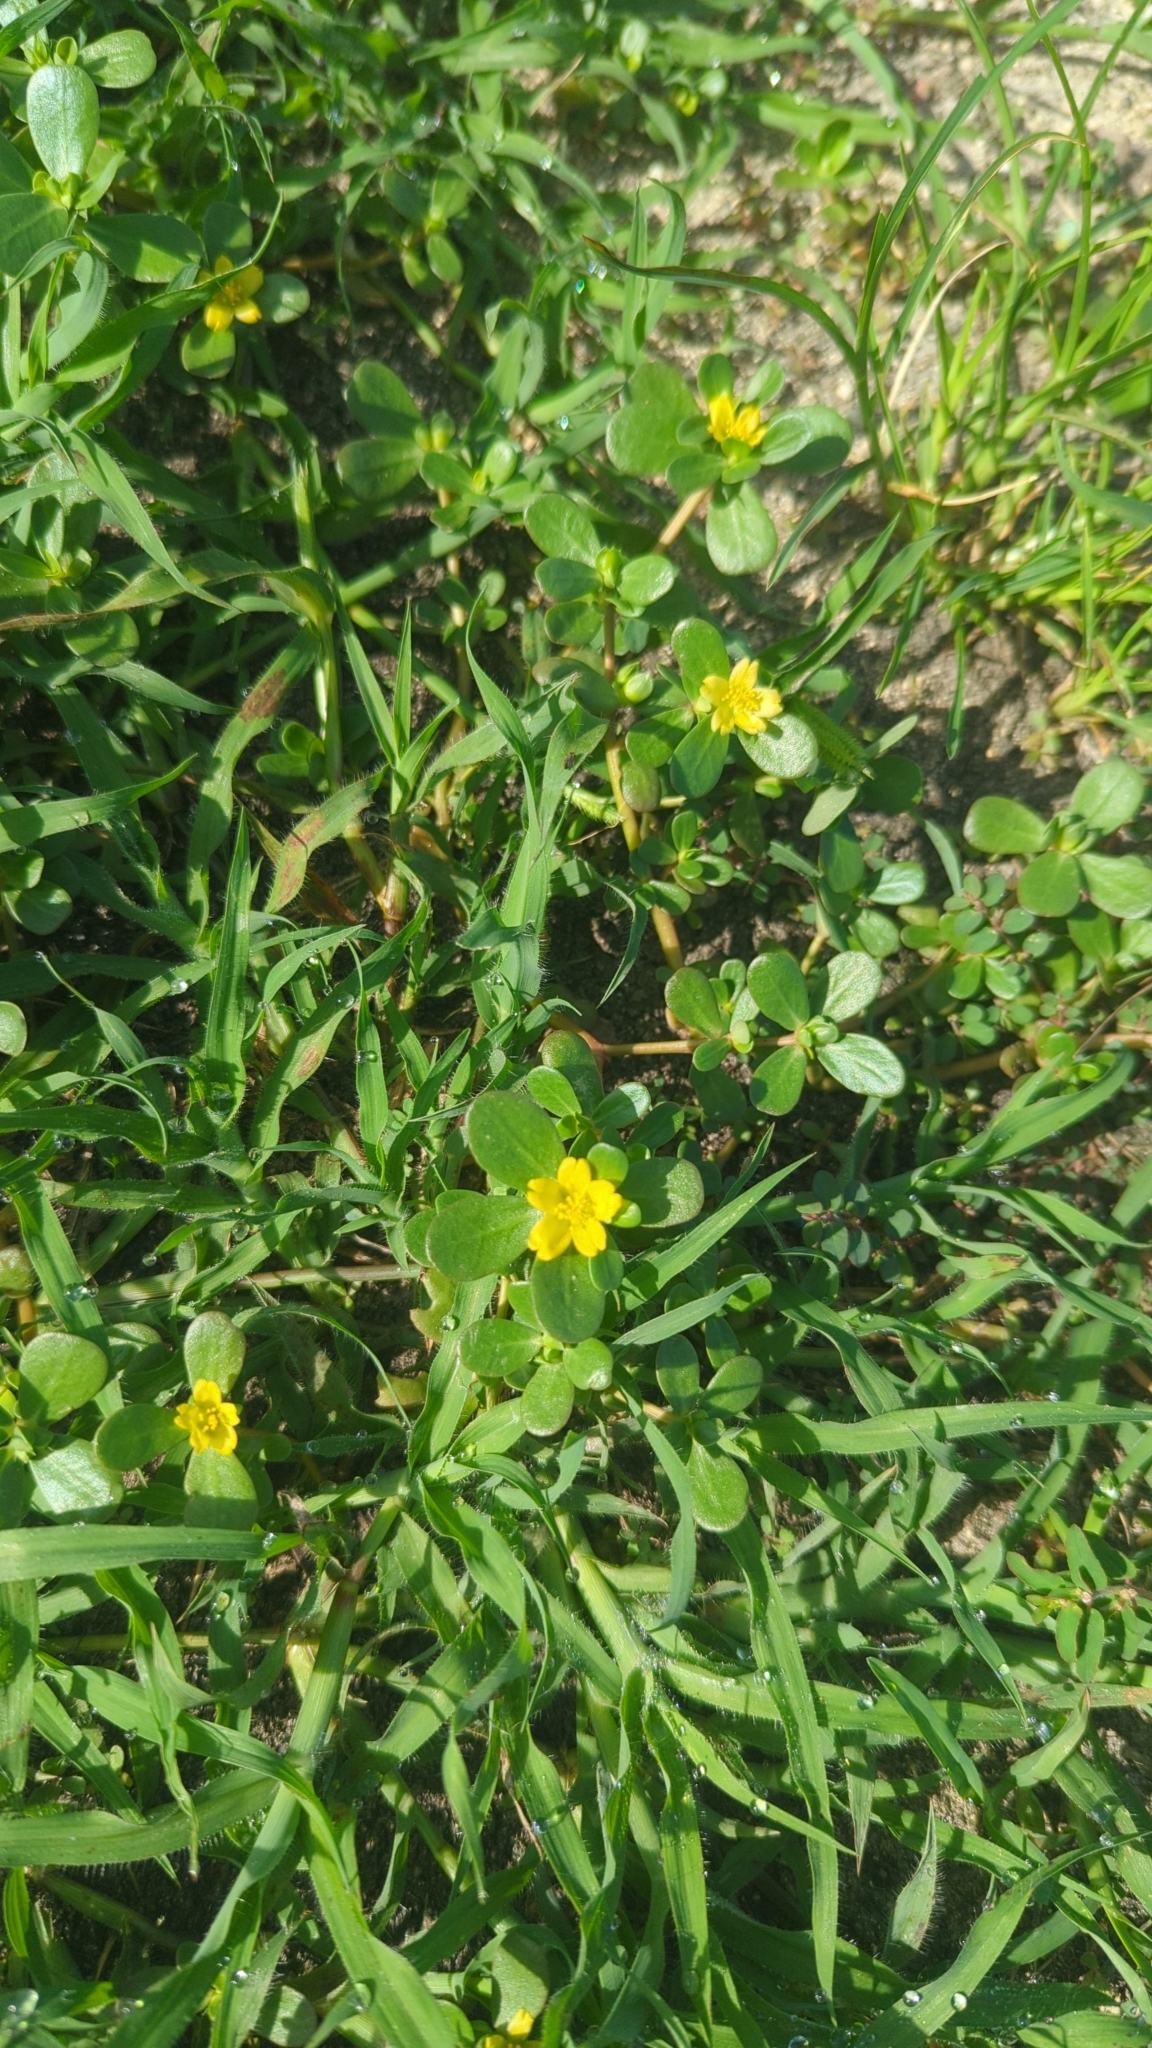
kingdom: Plantae
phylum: Tracheophyta
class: Magnoliopsida
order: Caryophyllales
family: Portulacaceae
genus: Portulaca
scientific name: Portulaca oleracea
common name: Common purslane
